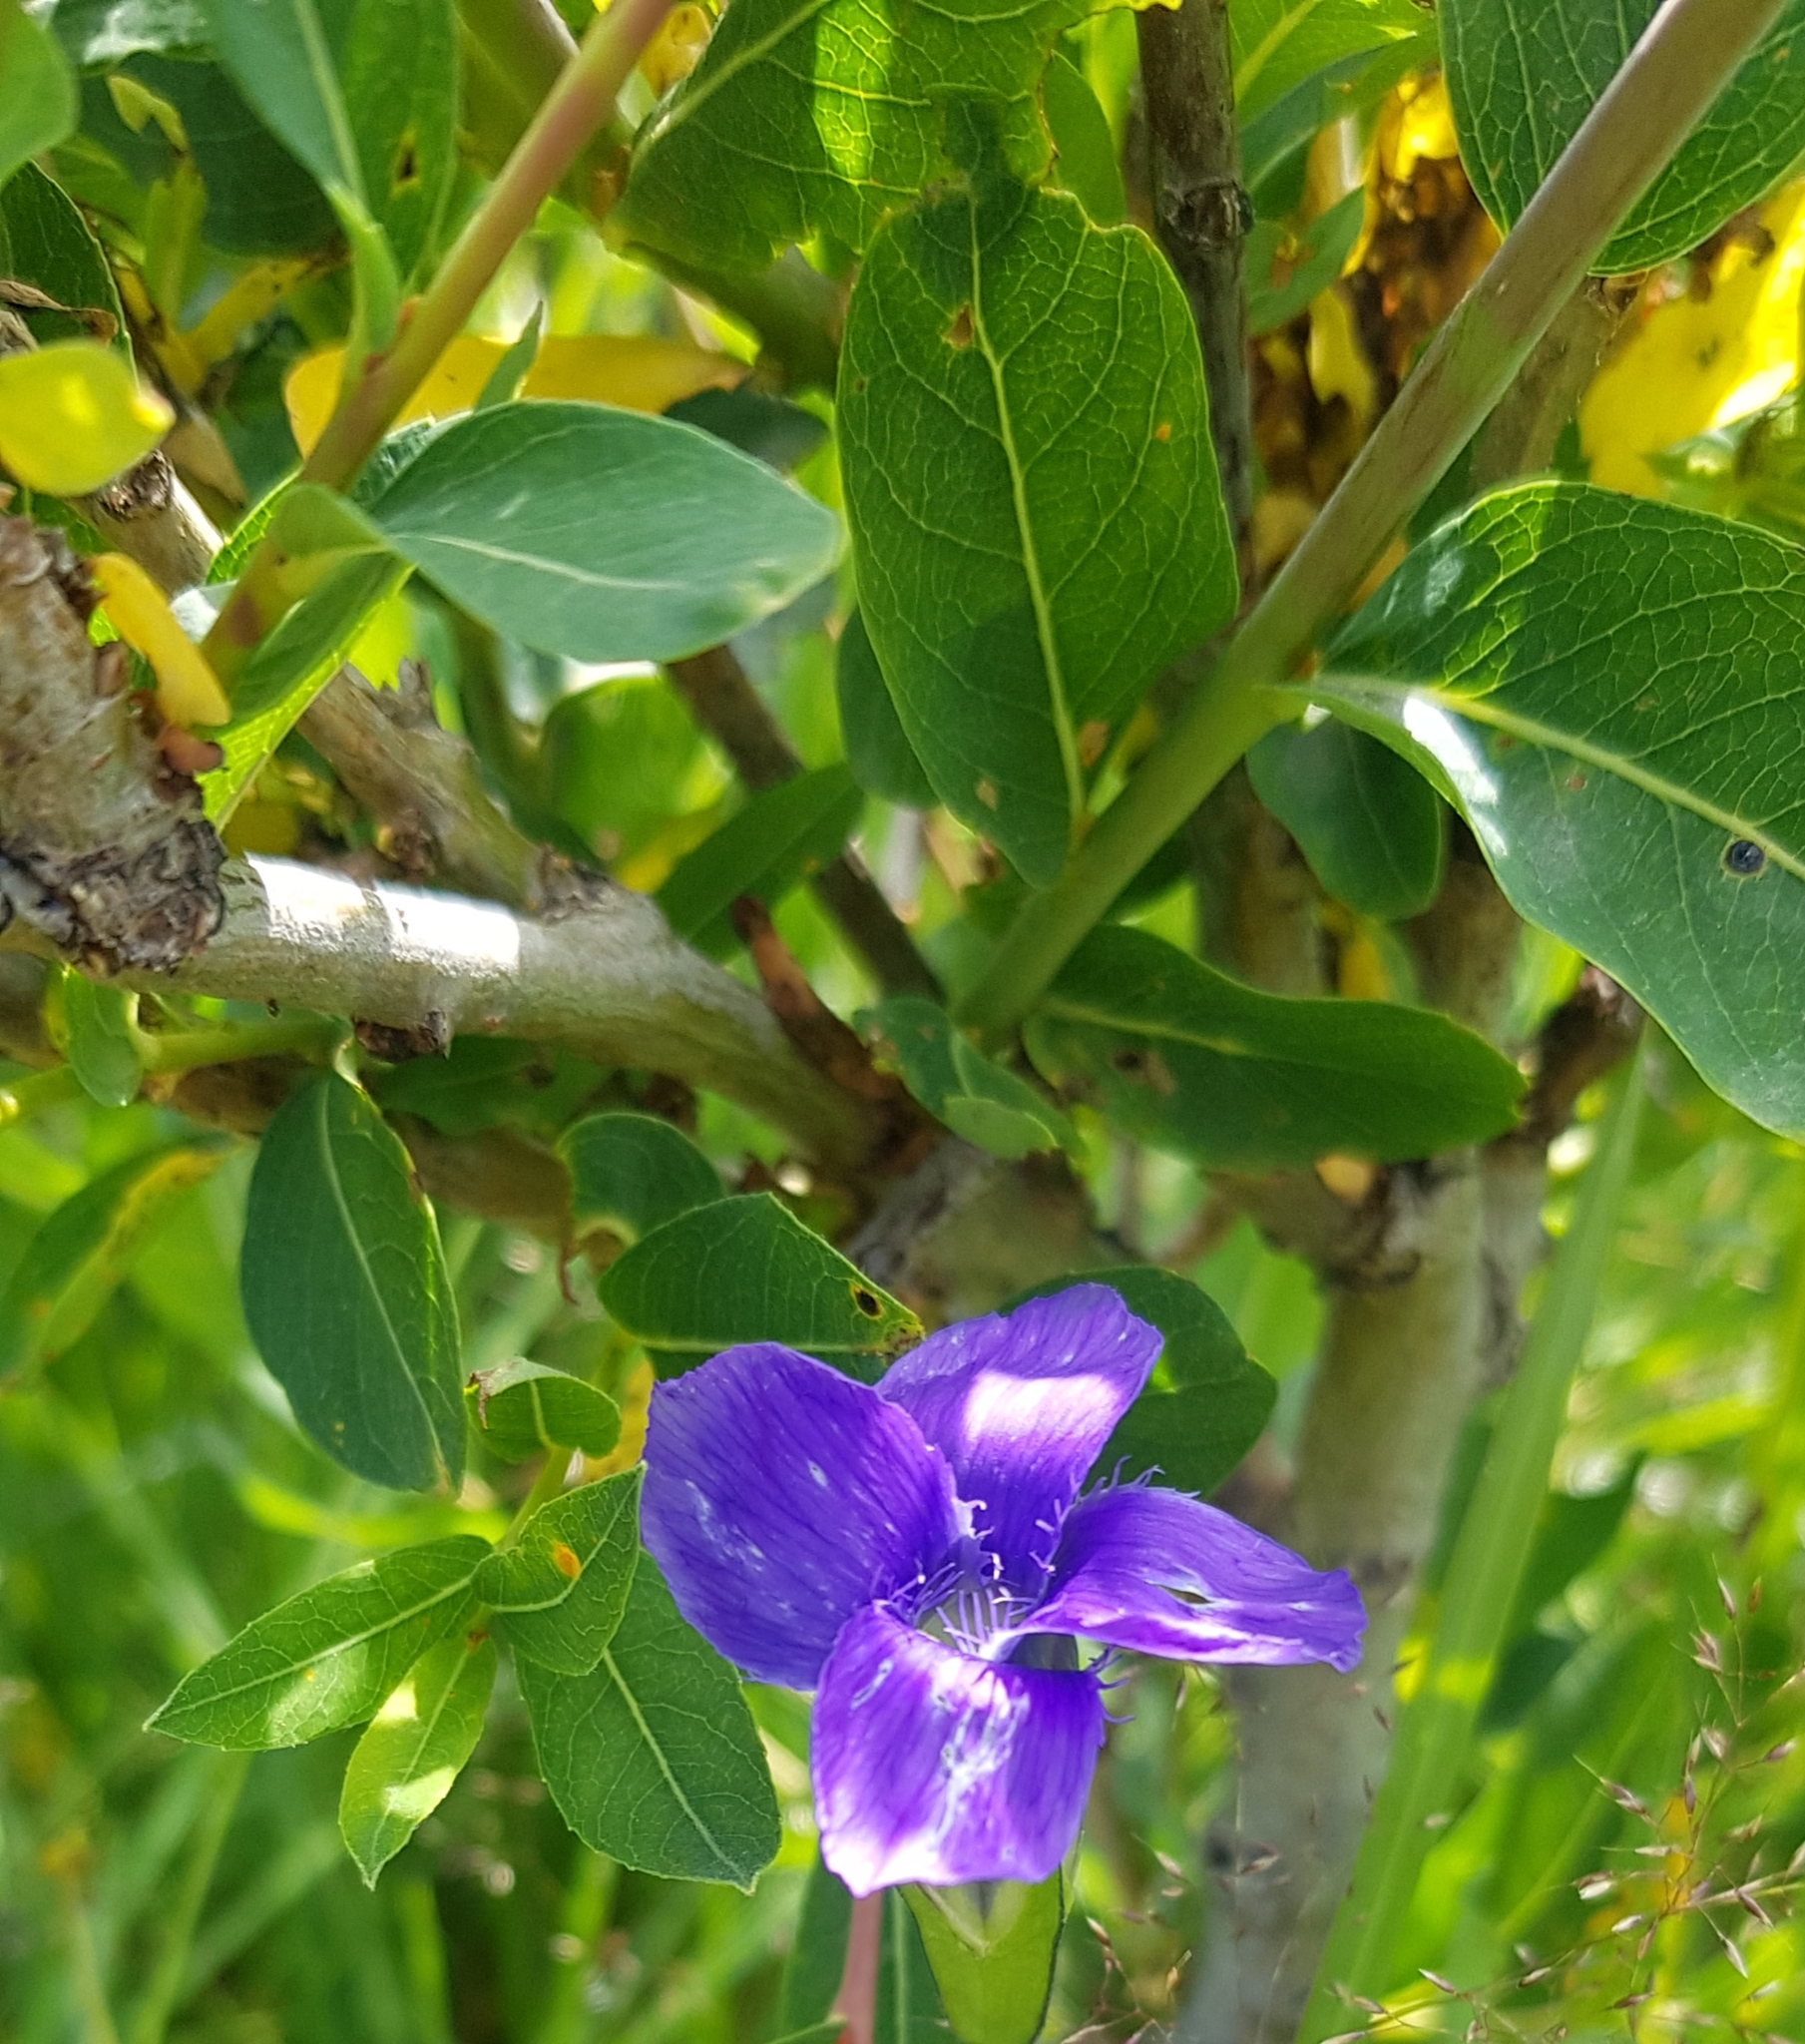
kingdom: Plantae
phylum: Tracheophyta
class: Magnoliopsida
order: Gentianales
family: Gentianaceae
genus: Gentianopsis
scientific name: Gentianopsis barbata
